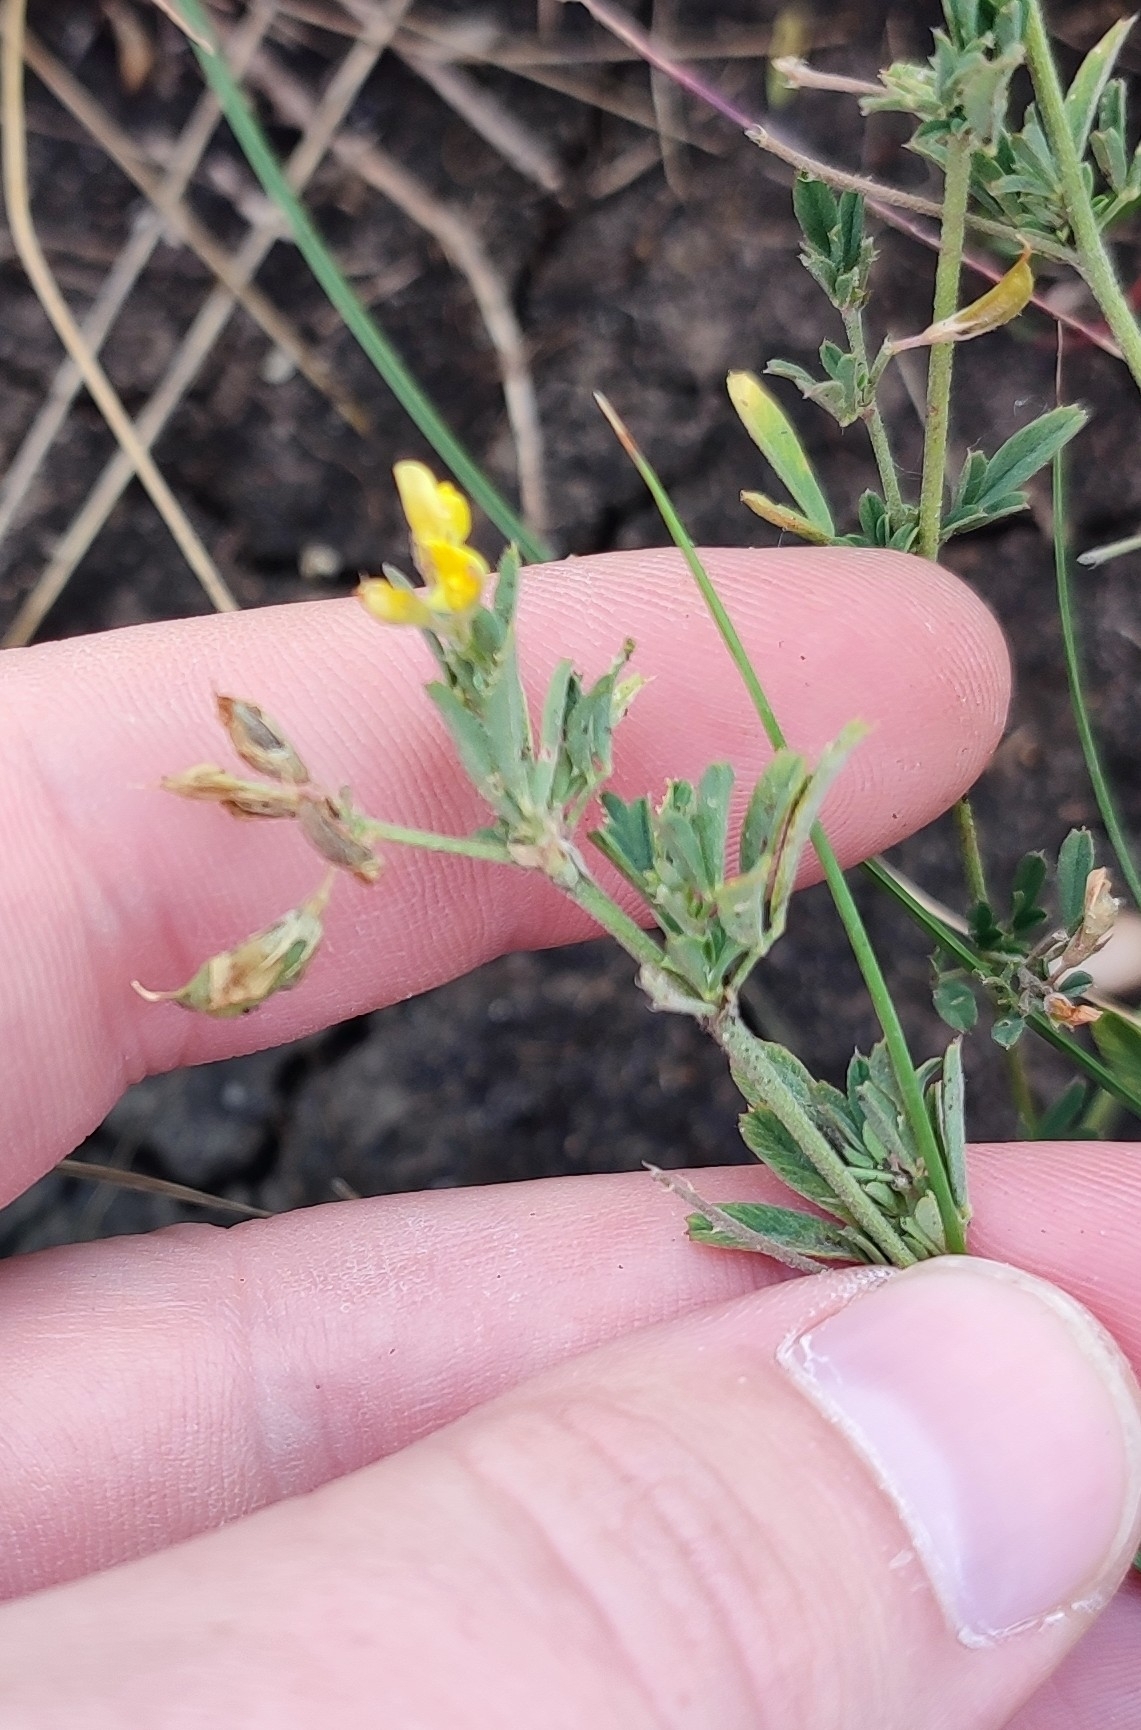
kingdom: Plantae
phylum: Tracheophyta
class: Magnoliopsida
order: Fabales
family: Fabaceae
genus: Medicago
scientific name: Medicago falcata
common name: Sickle medick
